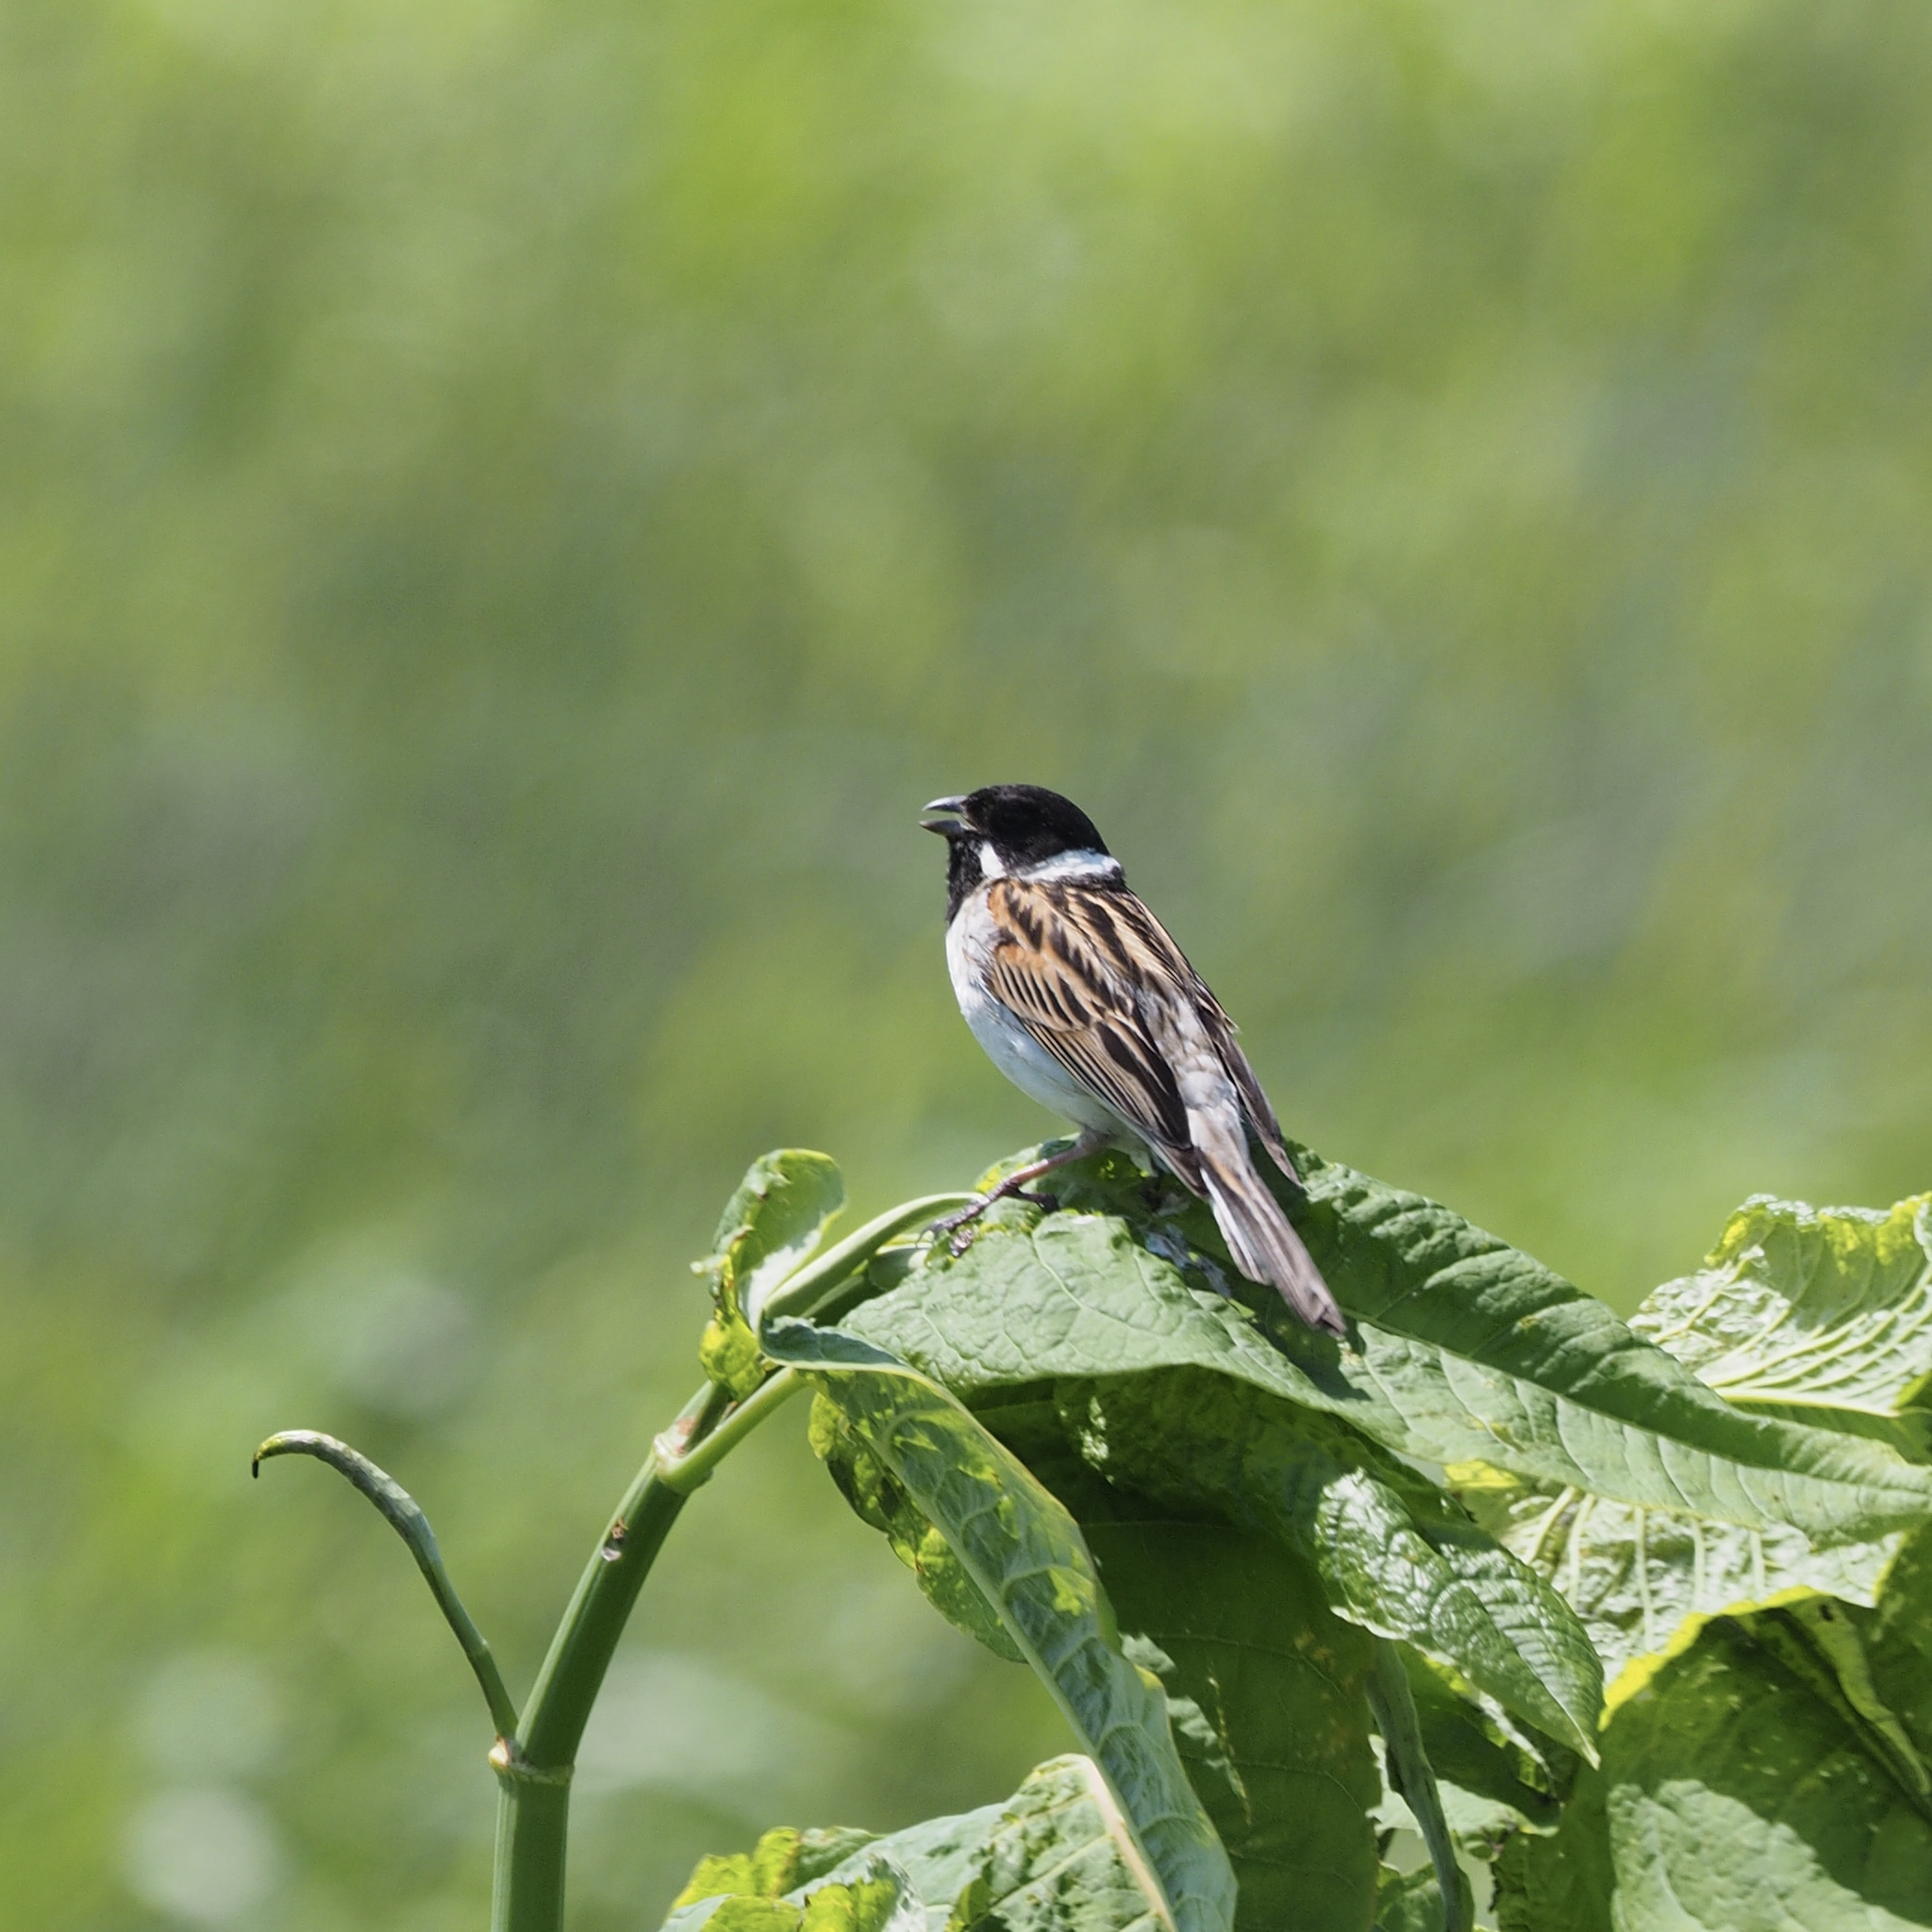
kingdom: Animalia
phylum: Chordata
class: Aves
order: Passeriformes
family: Emberizidae
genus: Emberiza
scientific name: Emberiza schoeniclus
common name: Reed bunting
